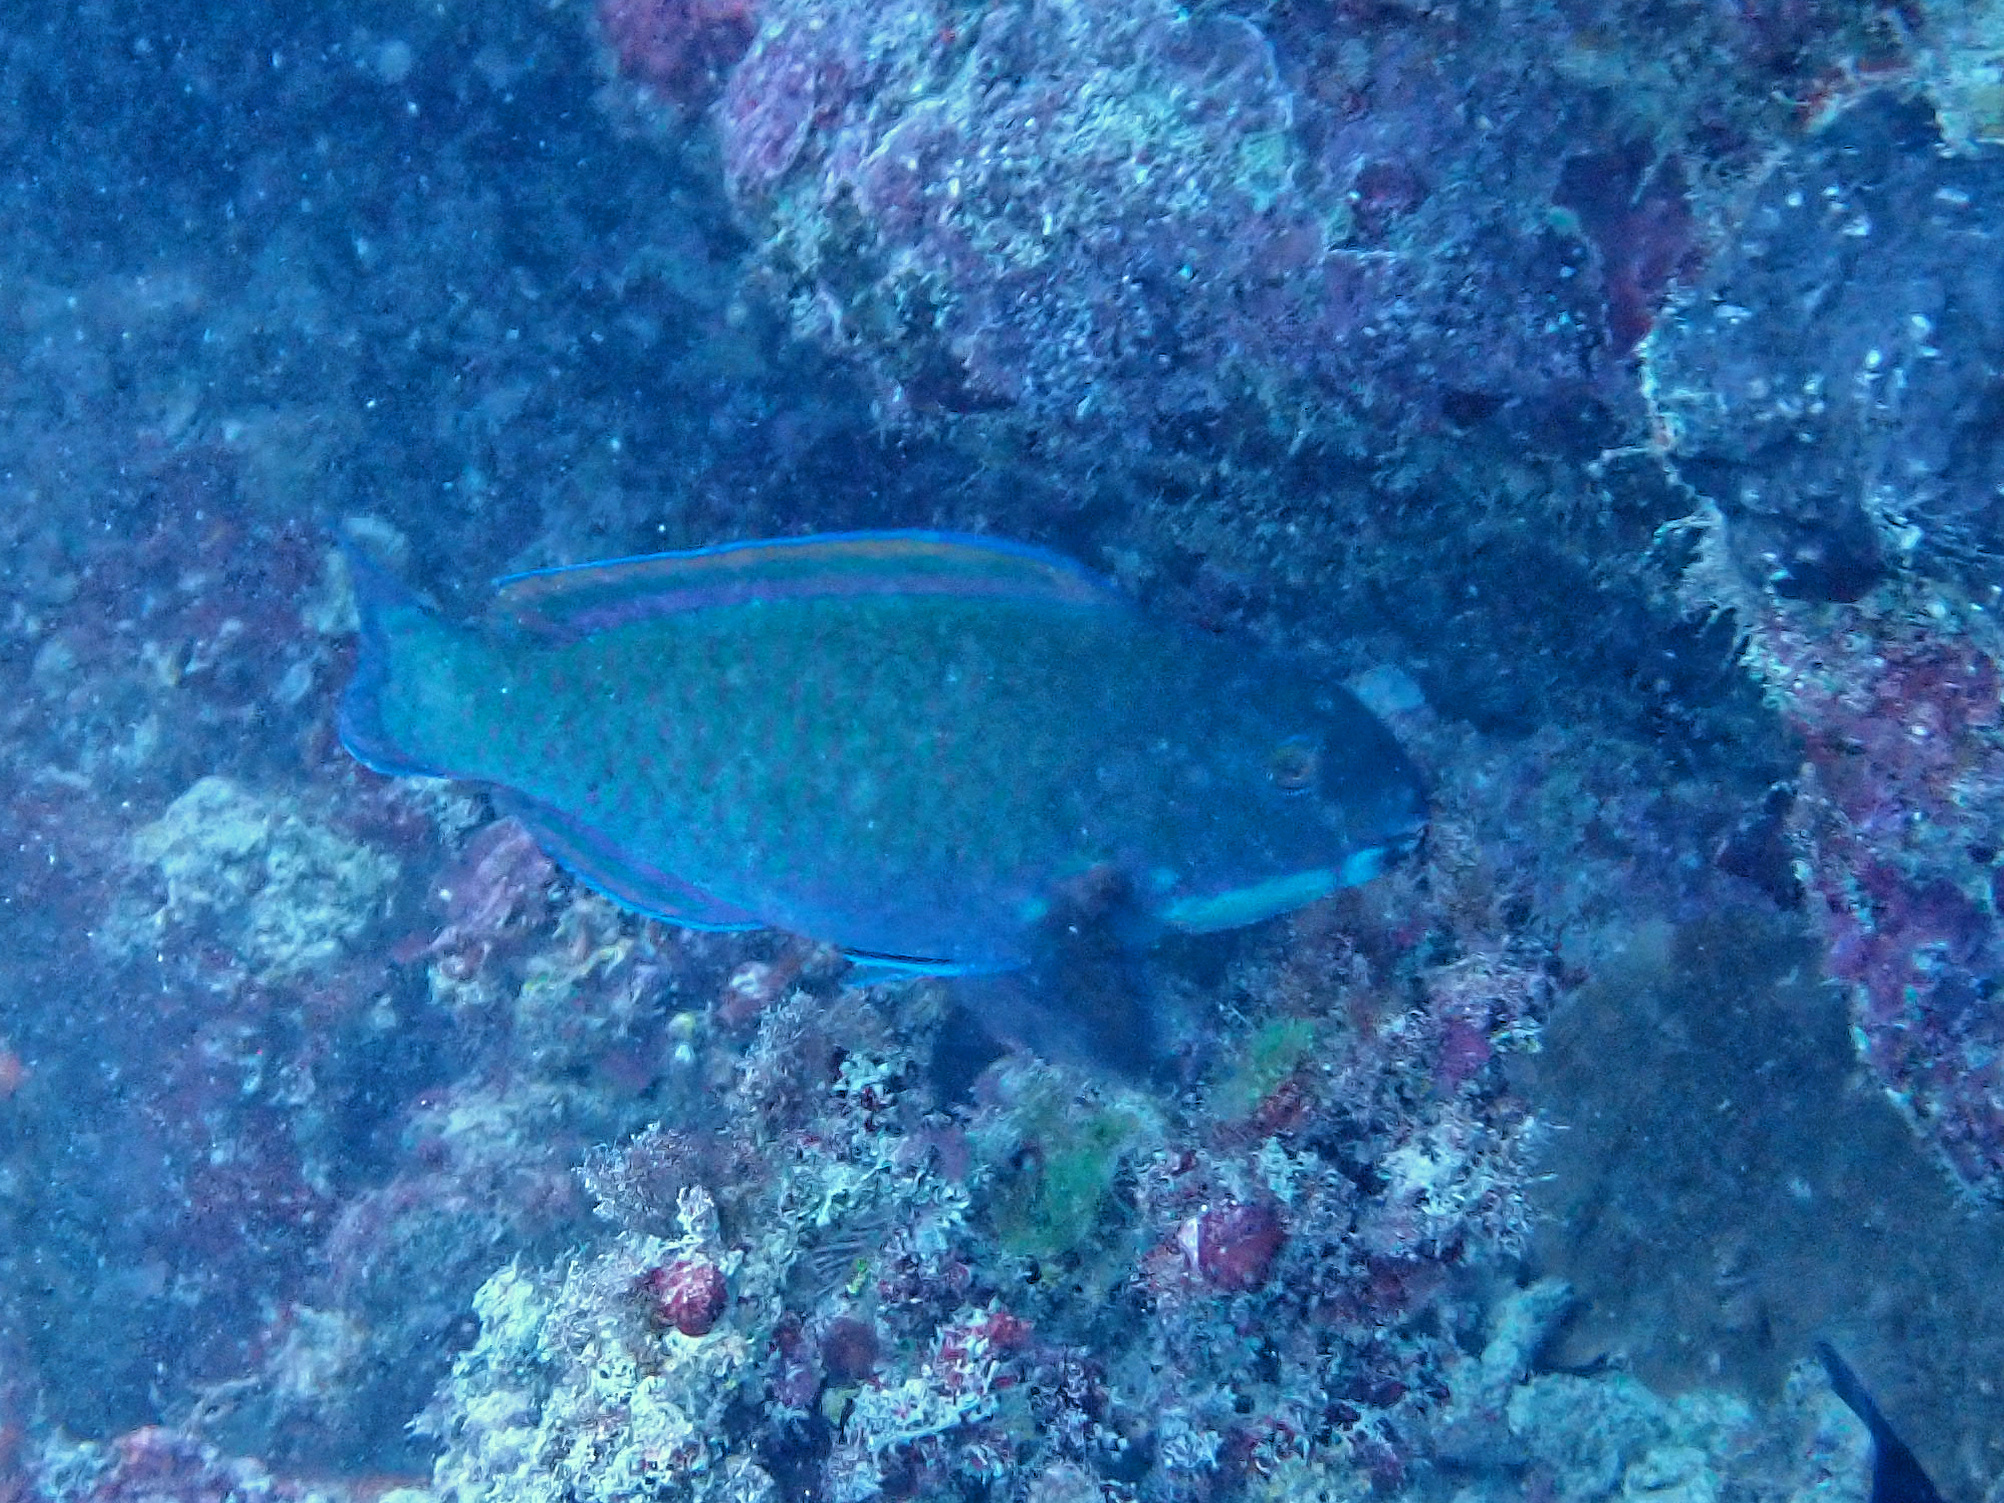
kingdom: Animalia
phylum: Chordata
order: Perciformes
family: Scaridae
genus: Chlorurus
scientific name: Chlorurus microrhinos
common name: Steephead parrotfish
